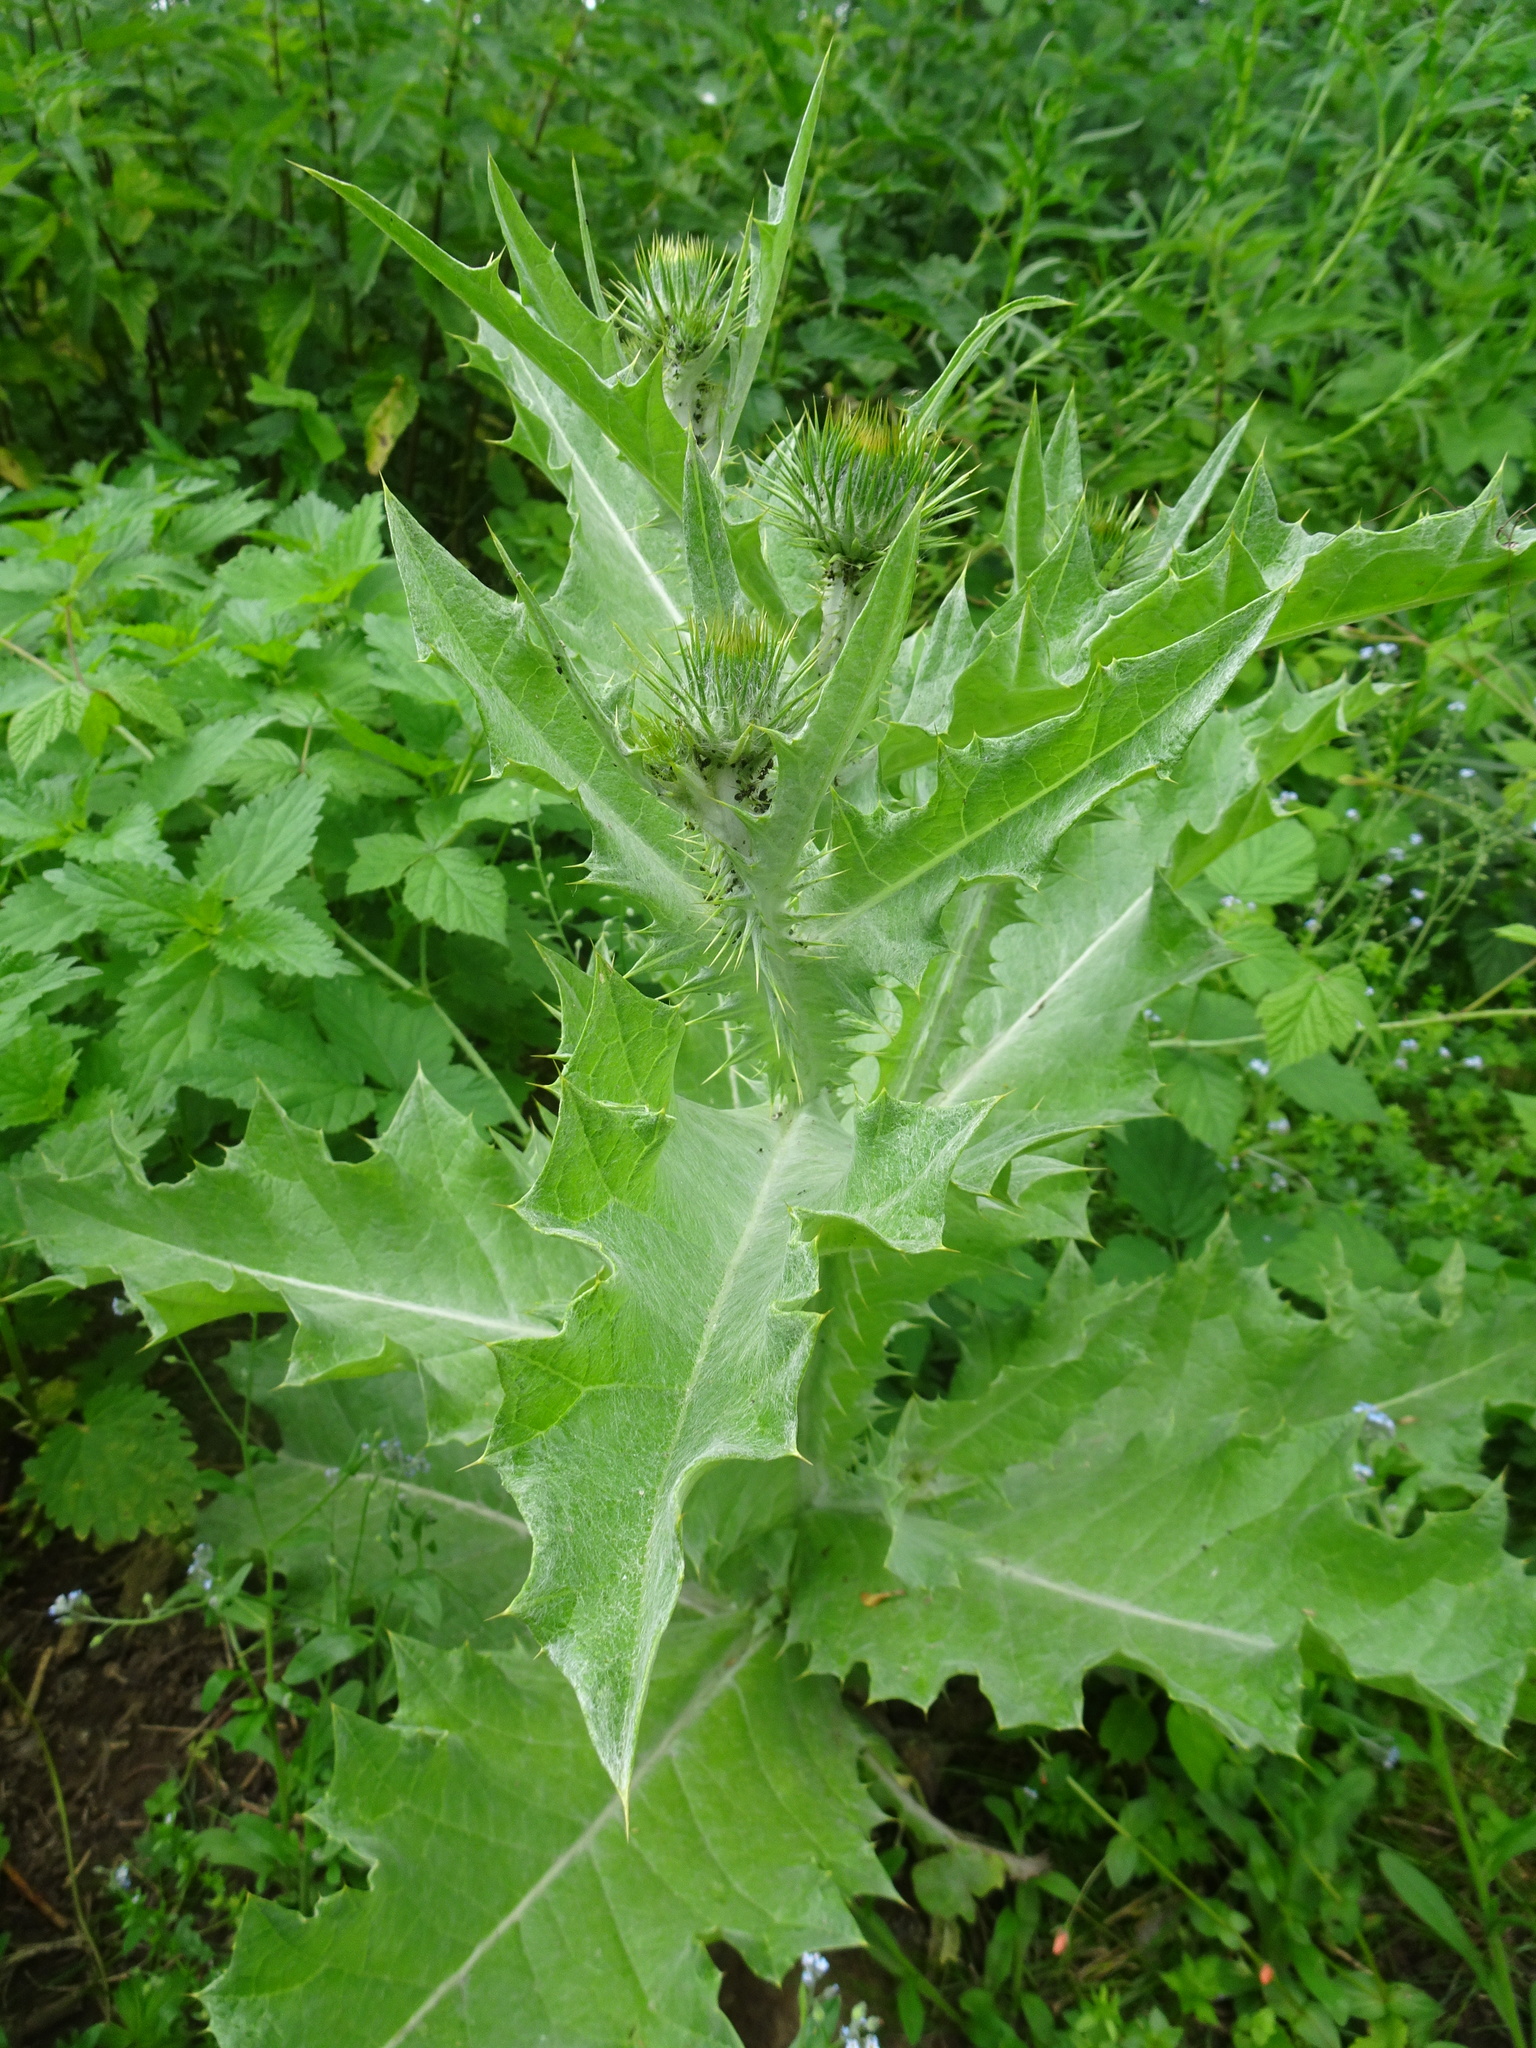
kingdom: Plantae
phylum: Tracheophyta
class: Magnoliopsida
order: Asterales
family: Asteraceae
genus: Onopordum
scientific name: Onopordum acanthium
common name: Scotch thistle
